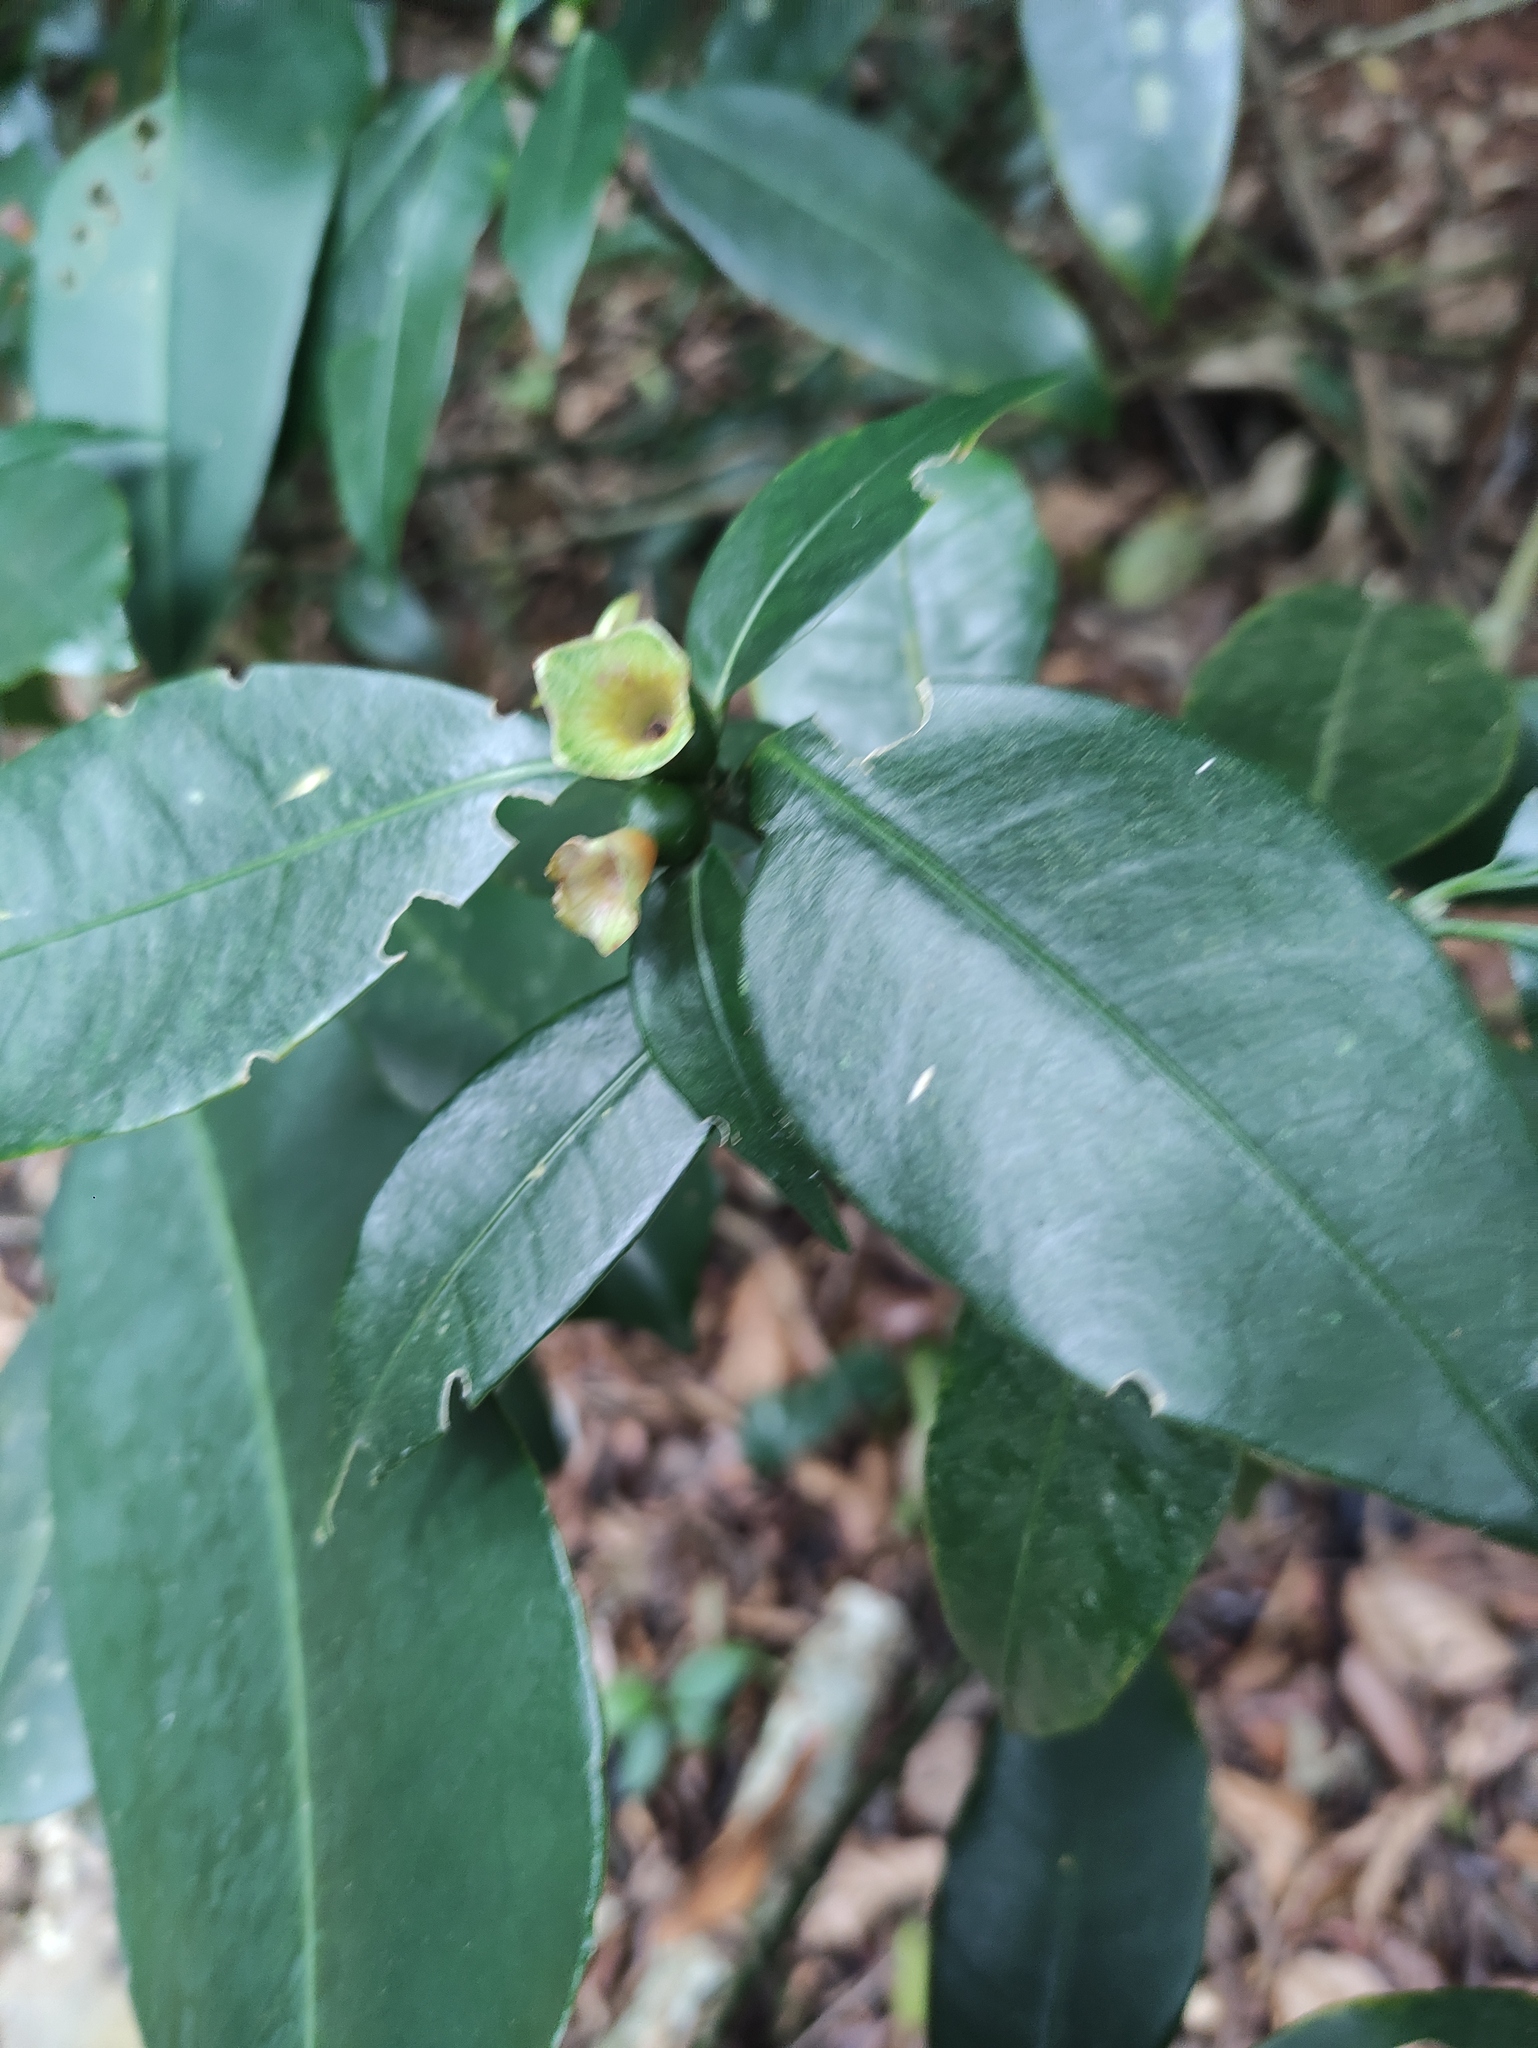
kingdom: Plantae
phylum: Tracheophyta
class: Magnoliopsida
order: Gentianales
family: Rubiaceae
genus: Psychotria
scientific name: Psychotria nuda
